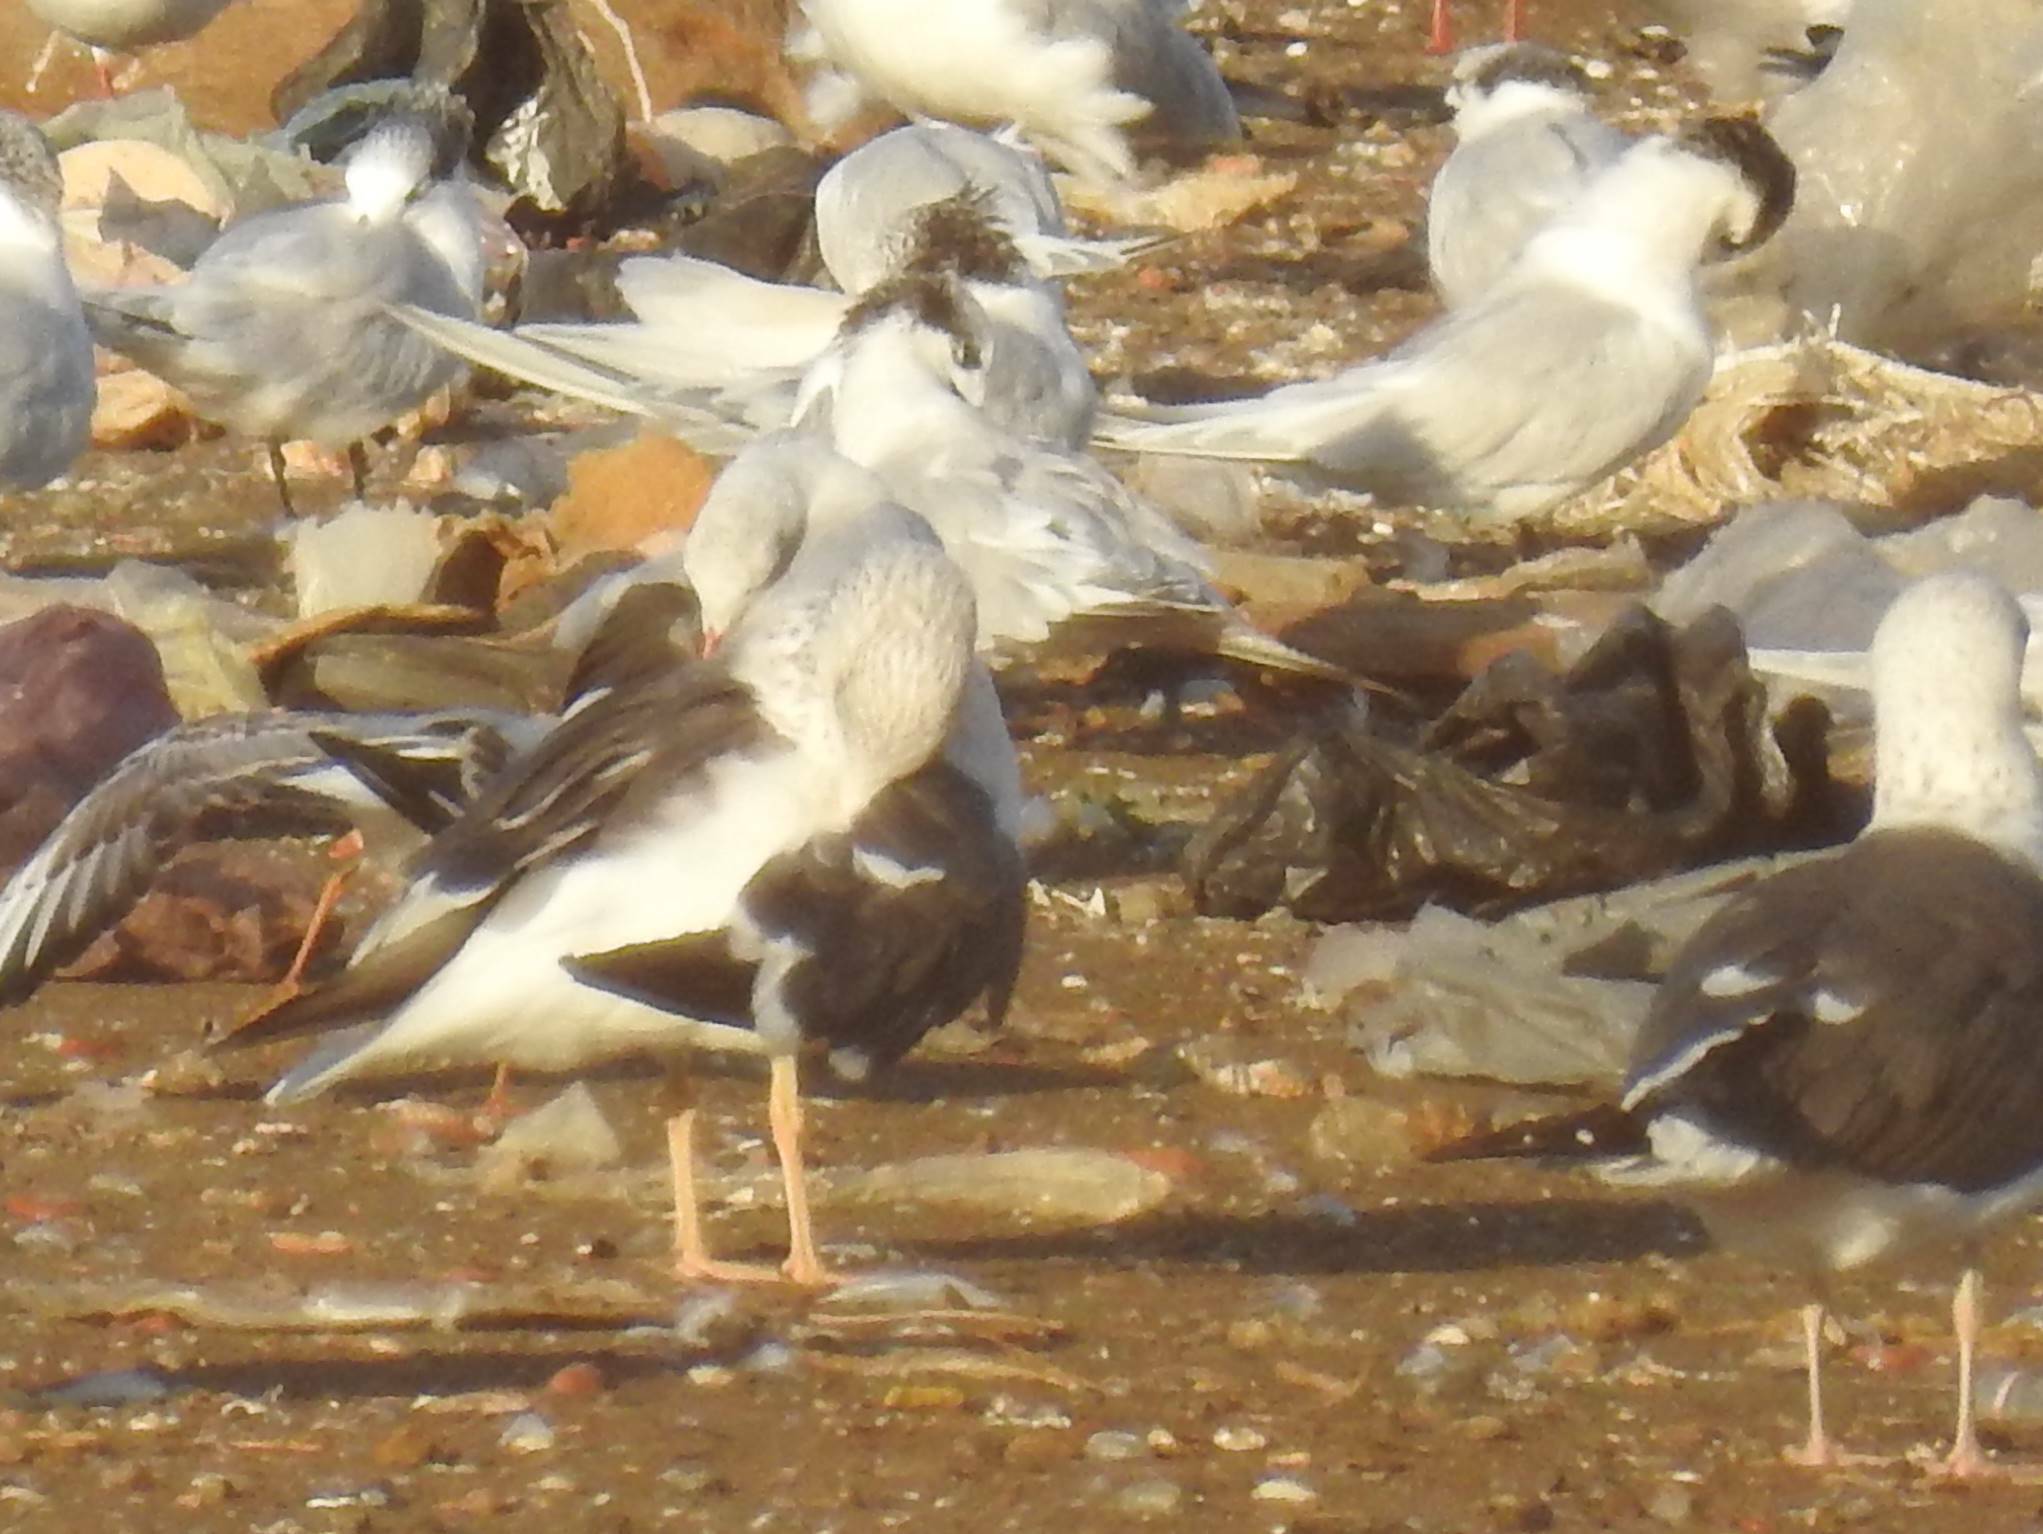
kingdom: Animalia
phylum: Chordata
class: Aves
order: Charadriiformes
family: Laridae
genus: Larus
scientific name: Larus fuscus
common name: Lesser black-backed gull
